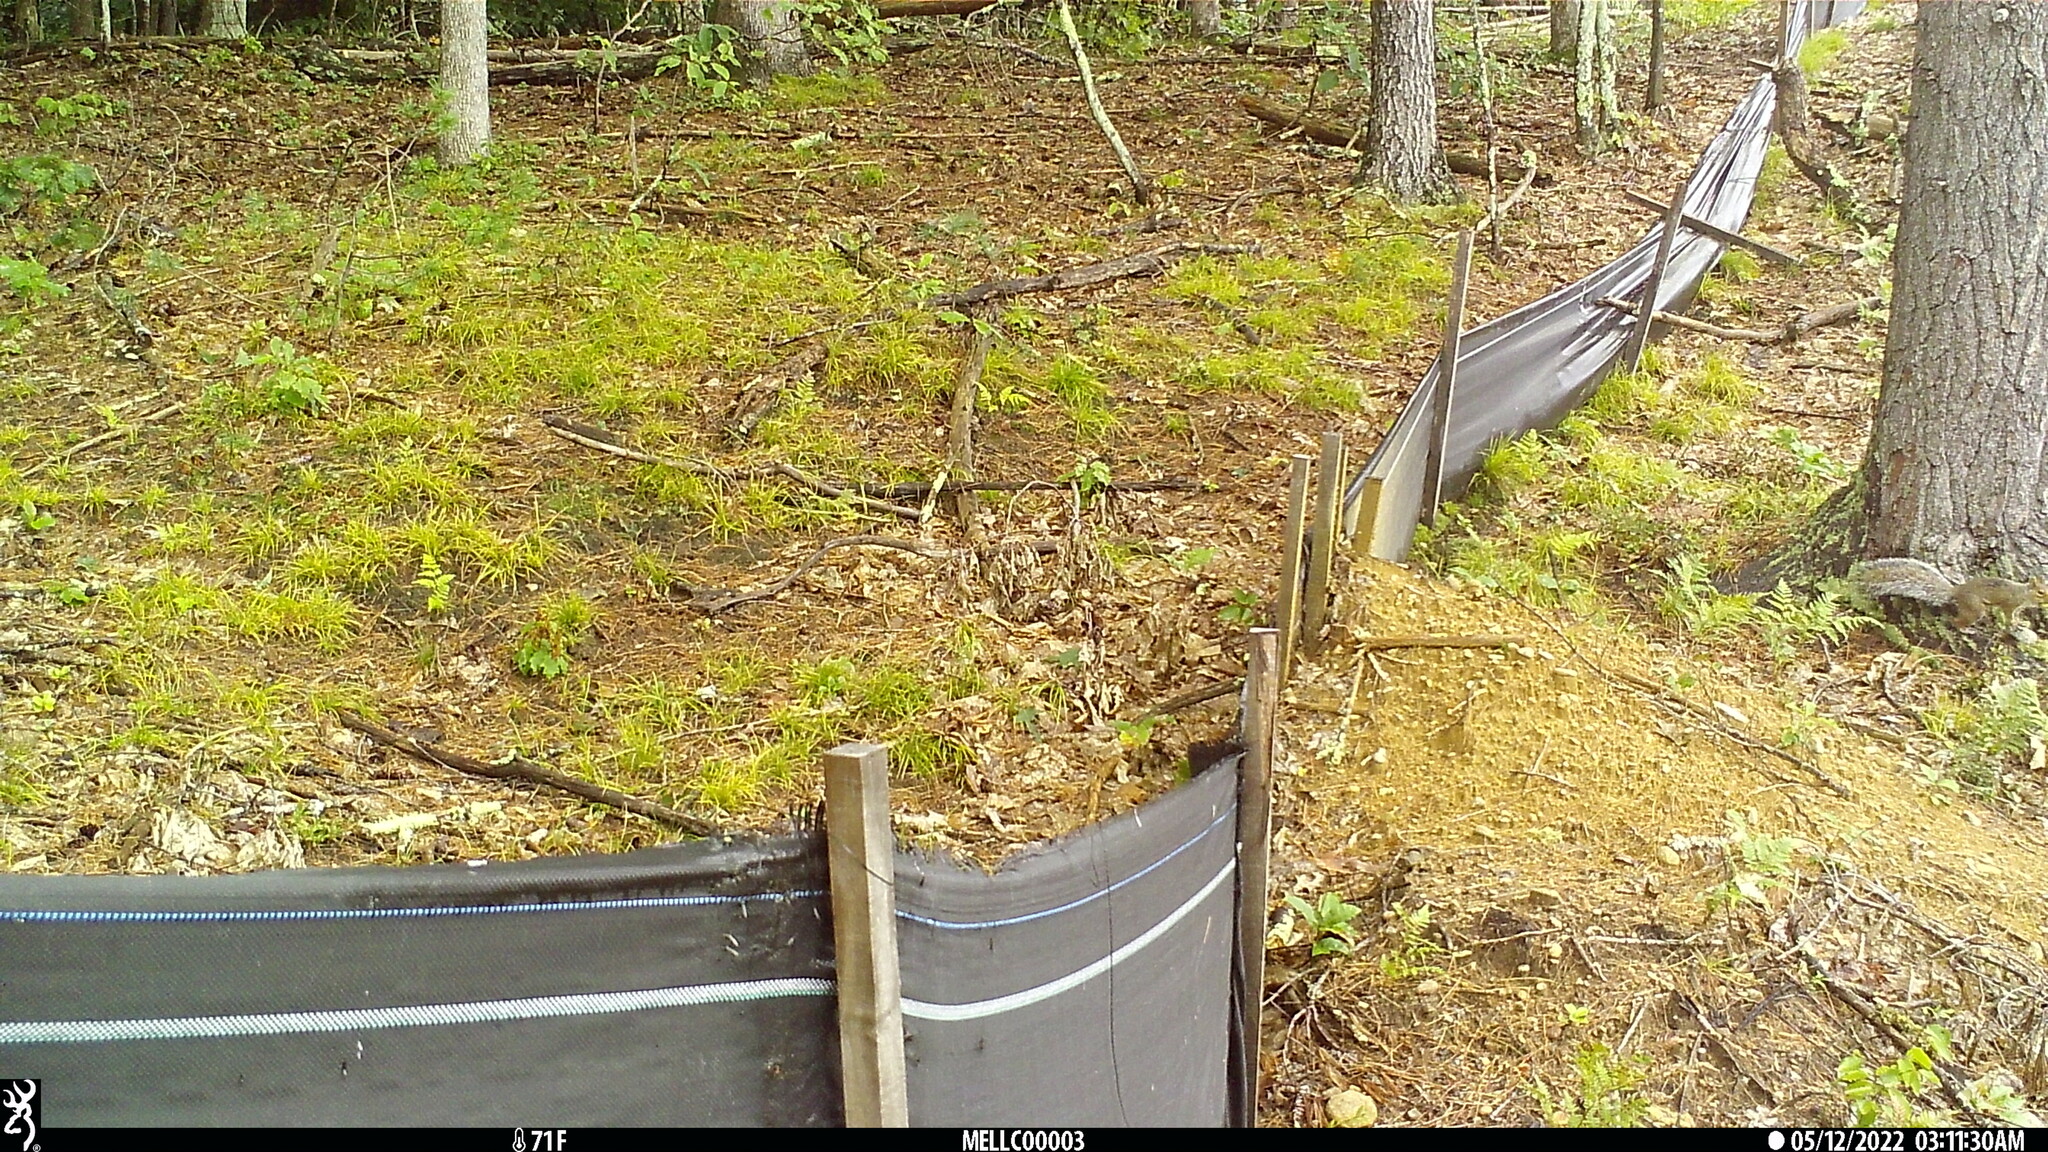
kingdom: Animalia
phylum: Chordata
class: Mammalia
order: Rodentia
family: Sciuridae
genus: Sciurus
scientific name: Sciurus carolinensis
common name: Eastern gray squirrel
